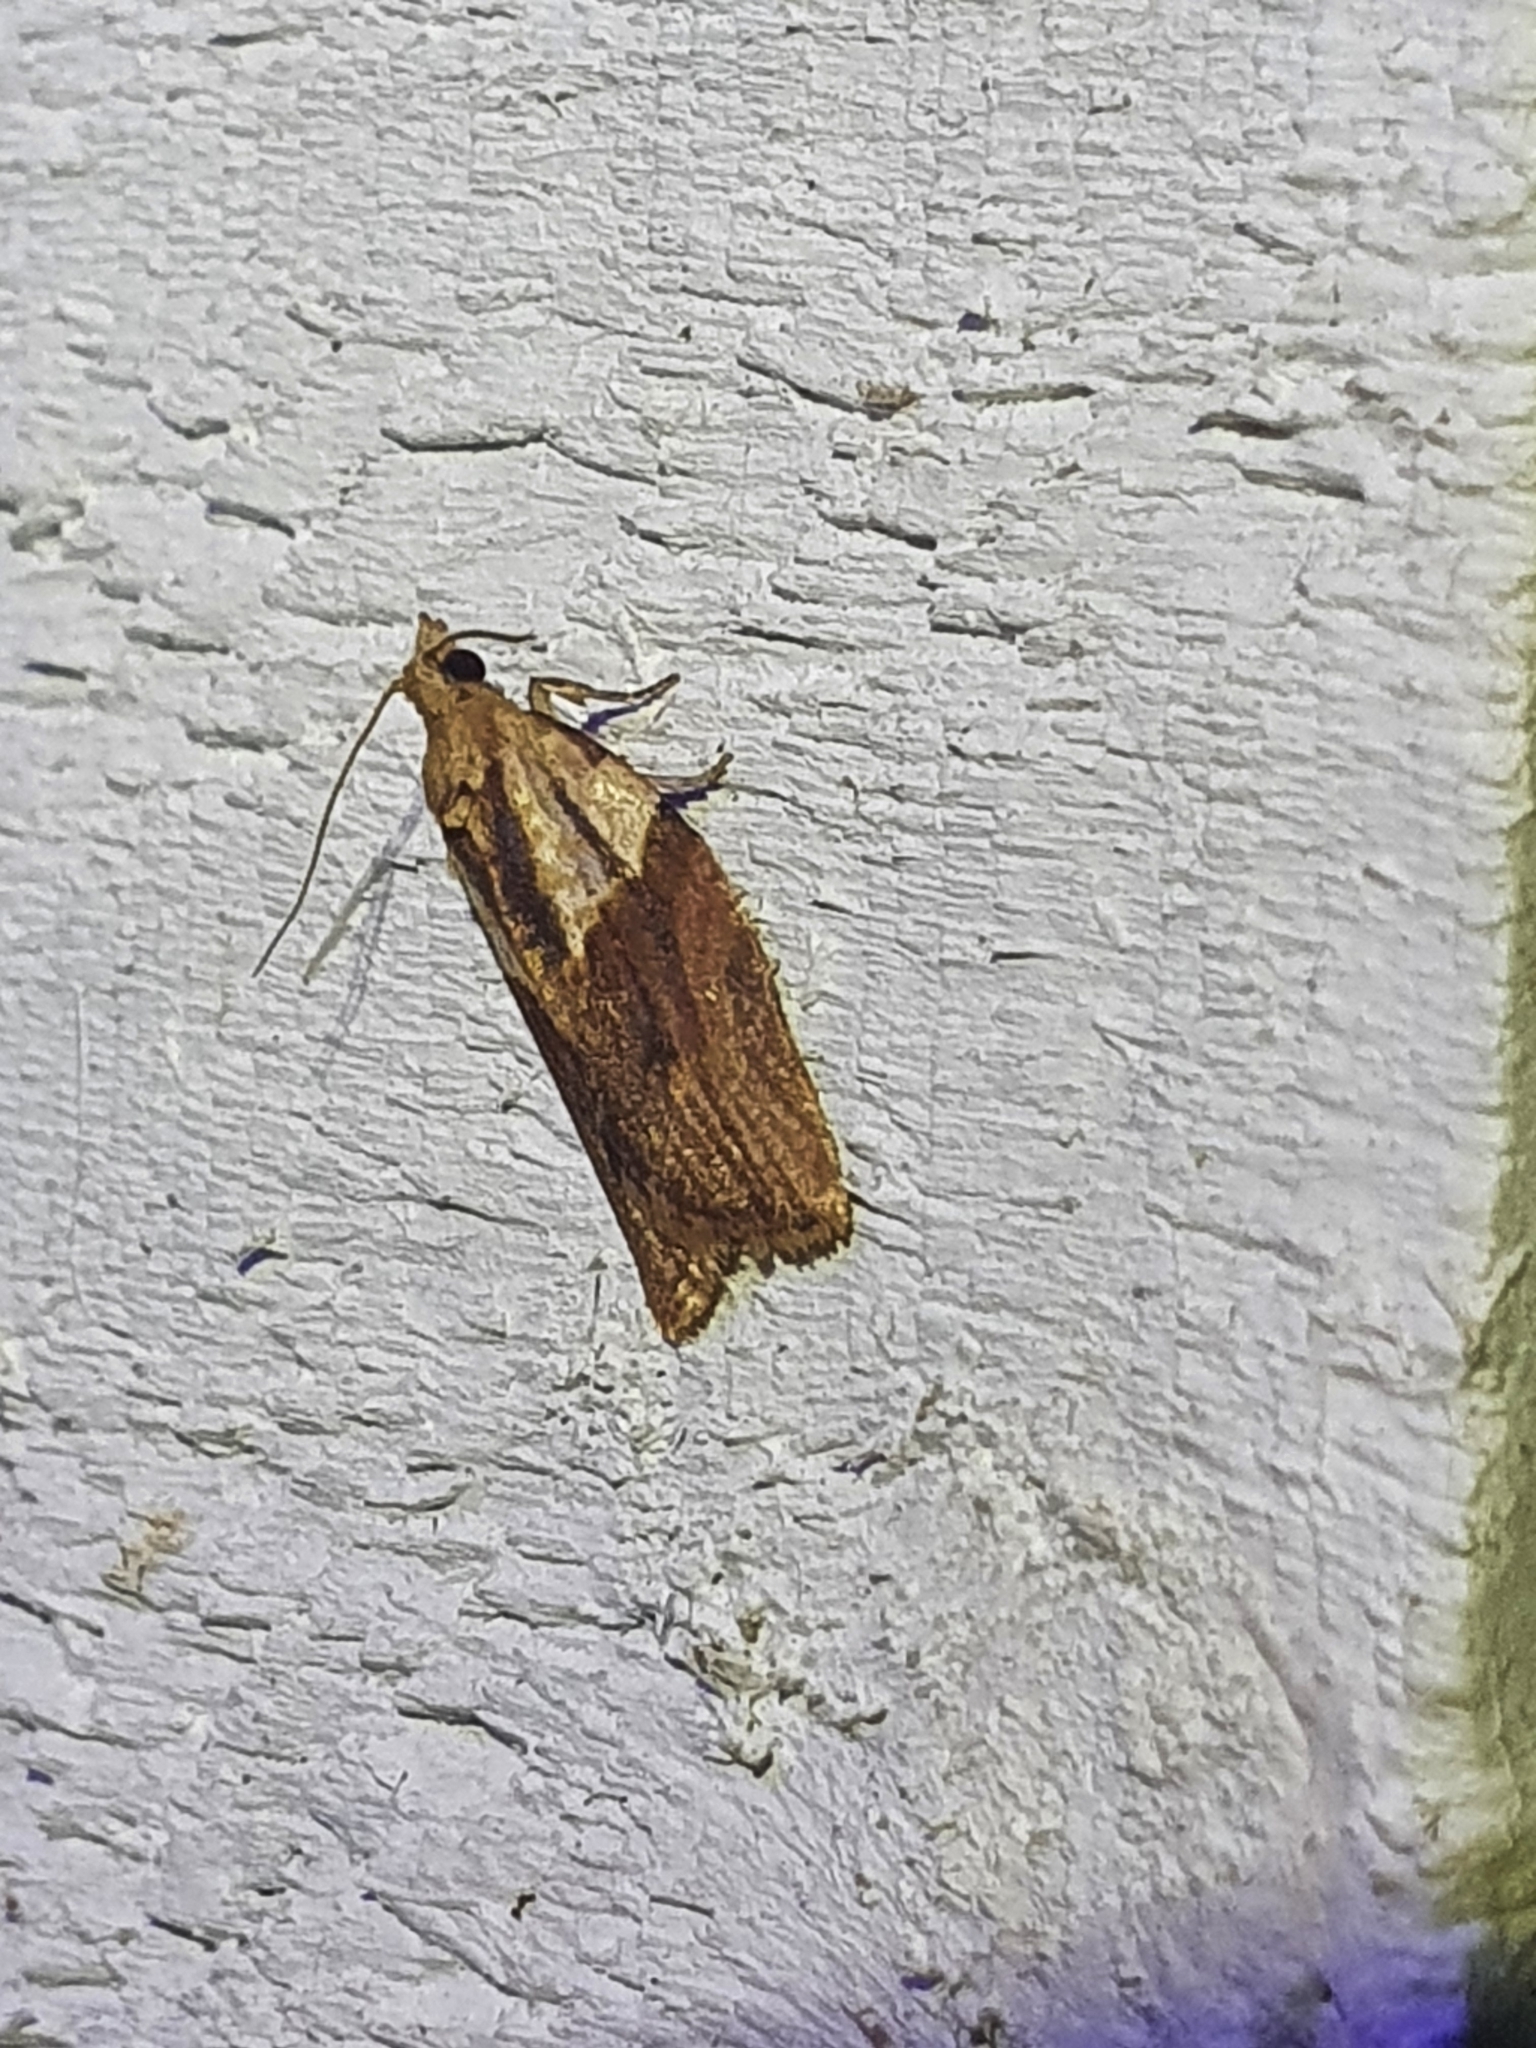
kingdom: Animalia
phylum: Arthropoda
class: Insecta
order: Lepidoptera
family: Tortricidae
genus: Epiphyas
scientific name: Epiphyas postvittana
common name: Light brown apple moth
